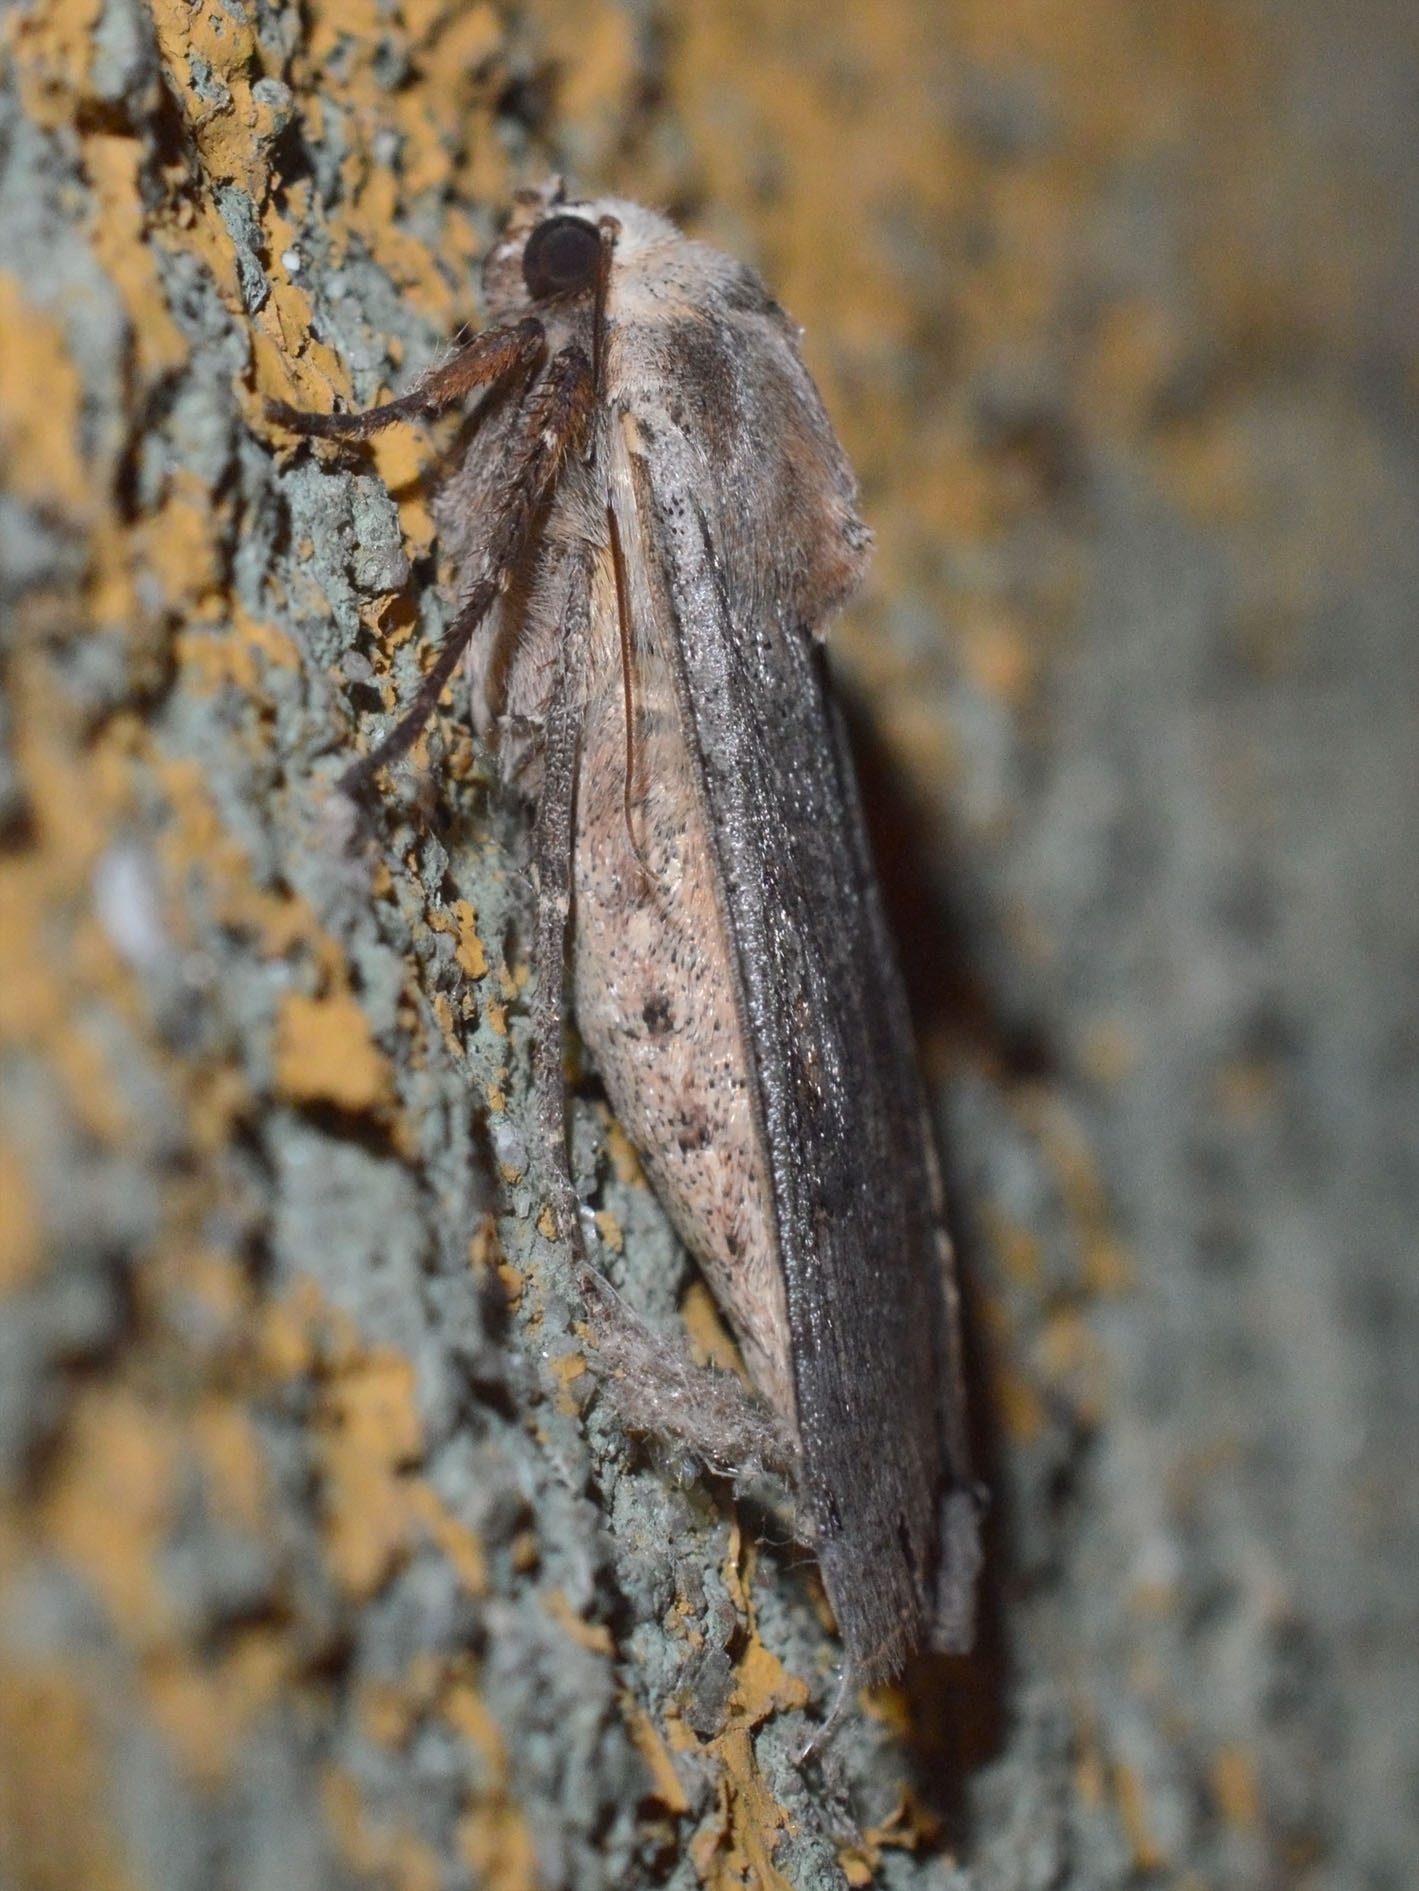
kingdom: Animalia
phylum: Arthropoda
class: Insecta
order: Lepidoptera
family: Noctuidae
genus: Noctua
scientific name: Noctua pronuba
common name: Large yellow underwing
